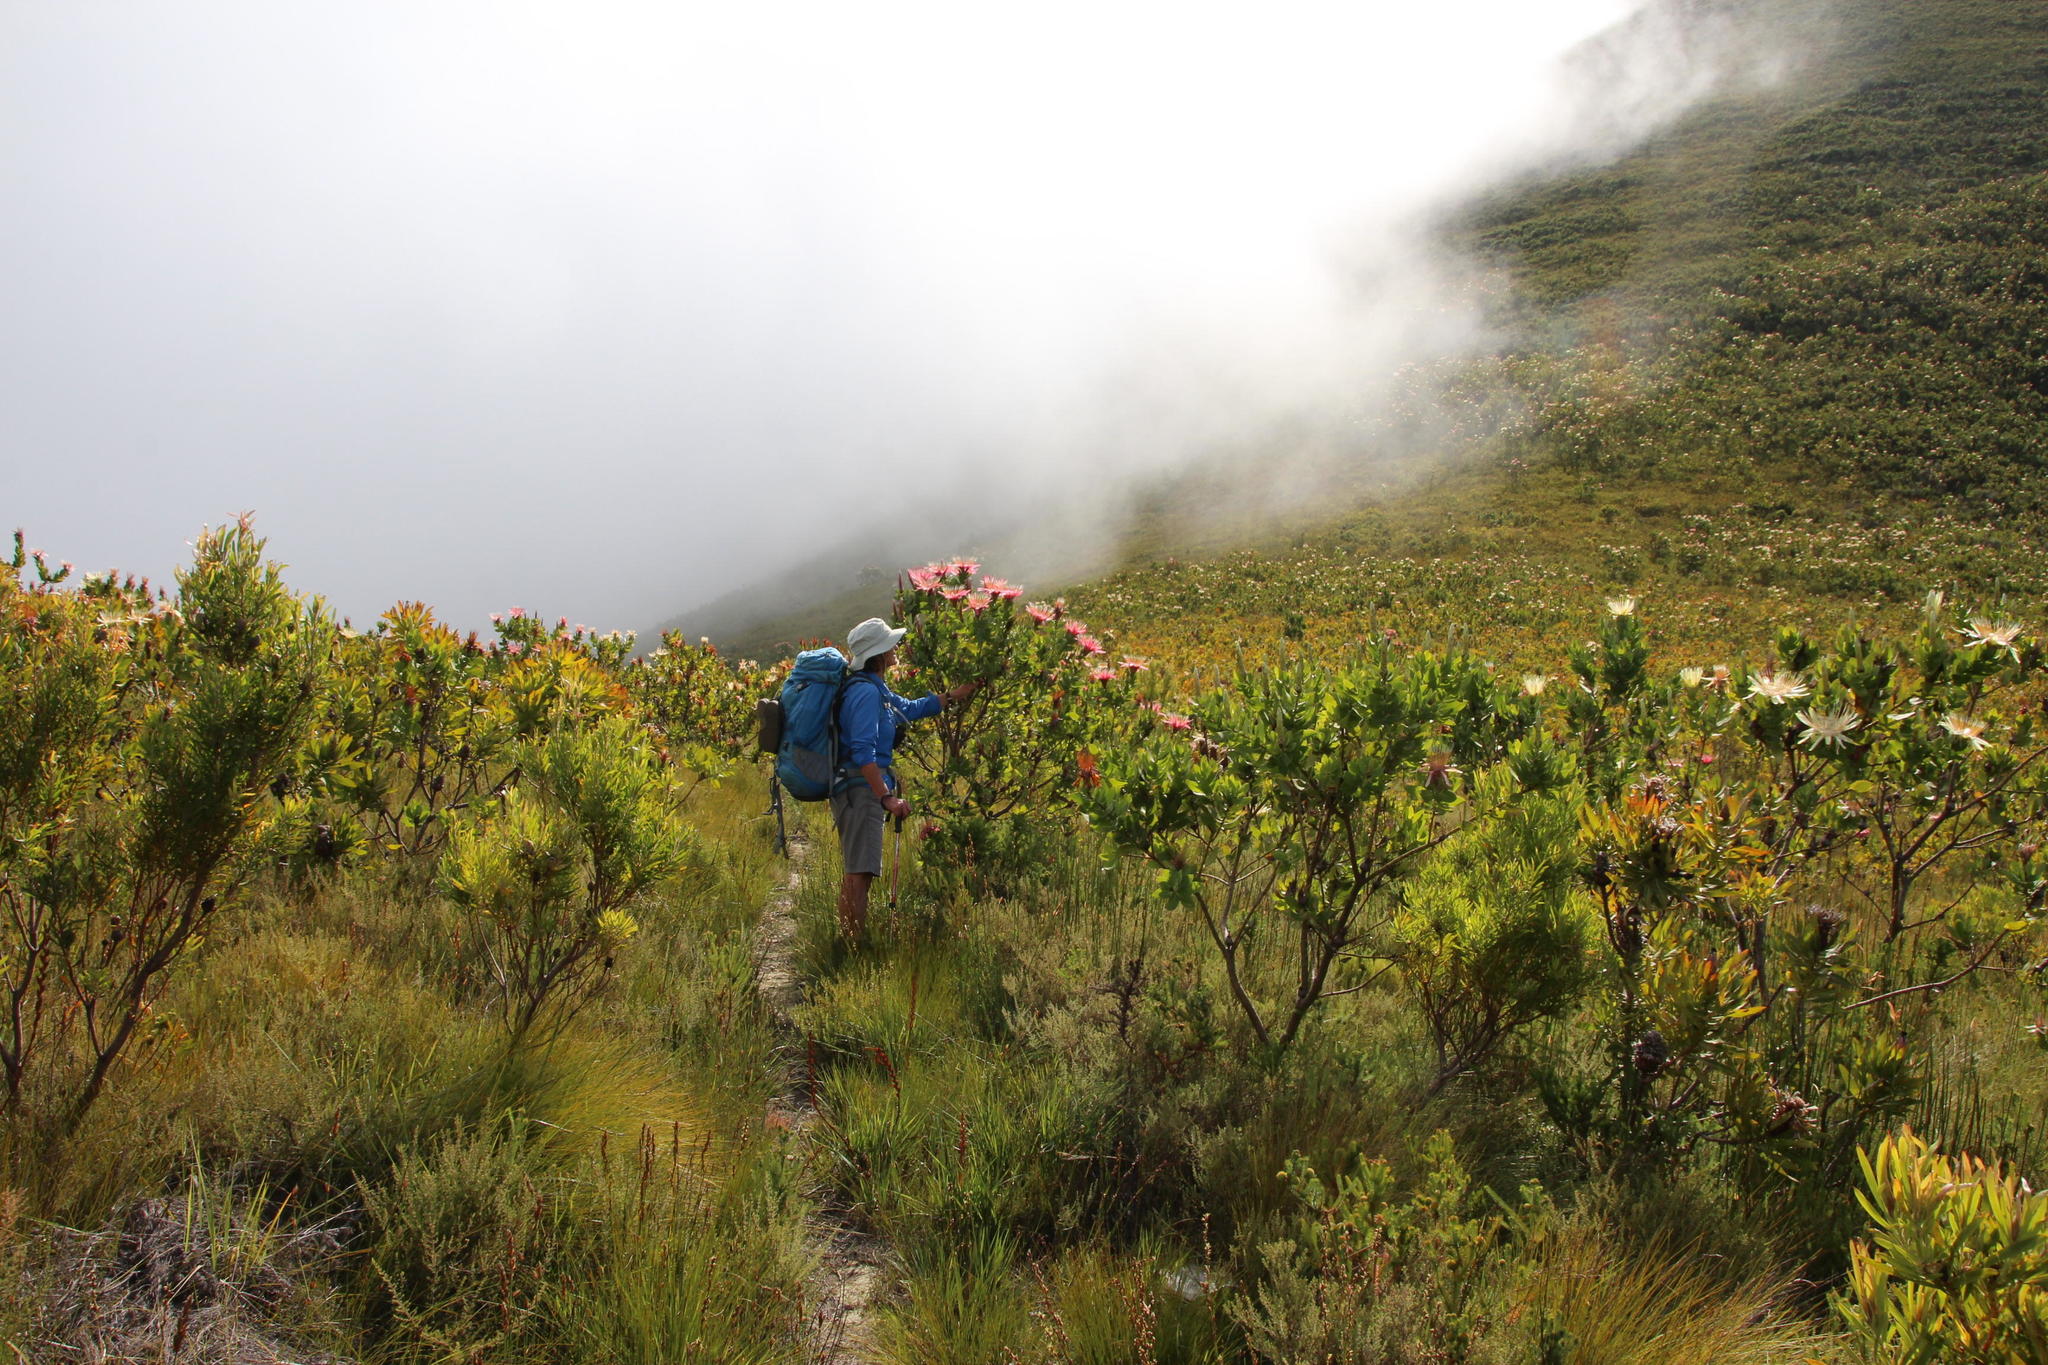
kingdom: Plantae
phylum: Tracheophyta
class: Magnoliopsida
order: Proteales
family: Proteaceae
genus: Protea
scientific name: Protea aurea
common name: Shuttlecock sugarbush
